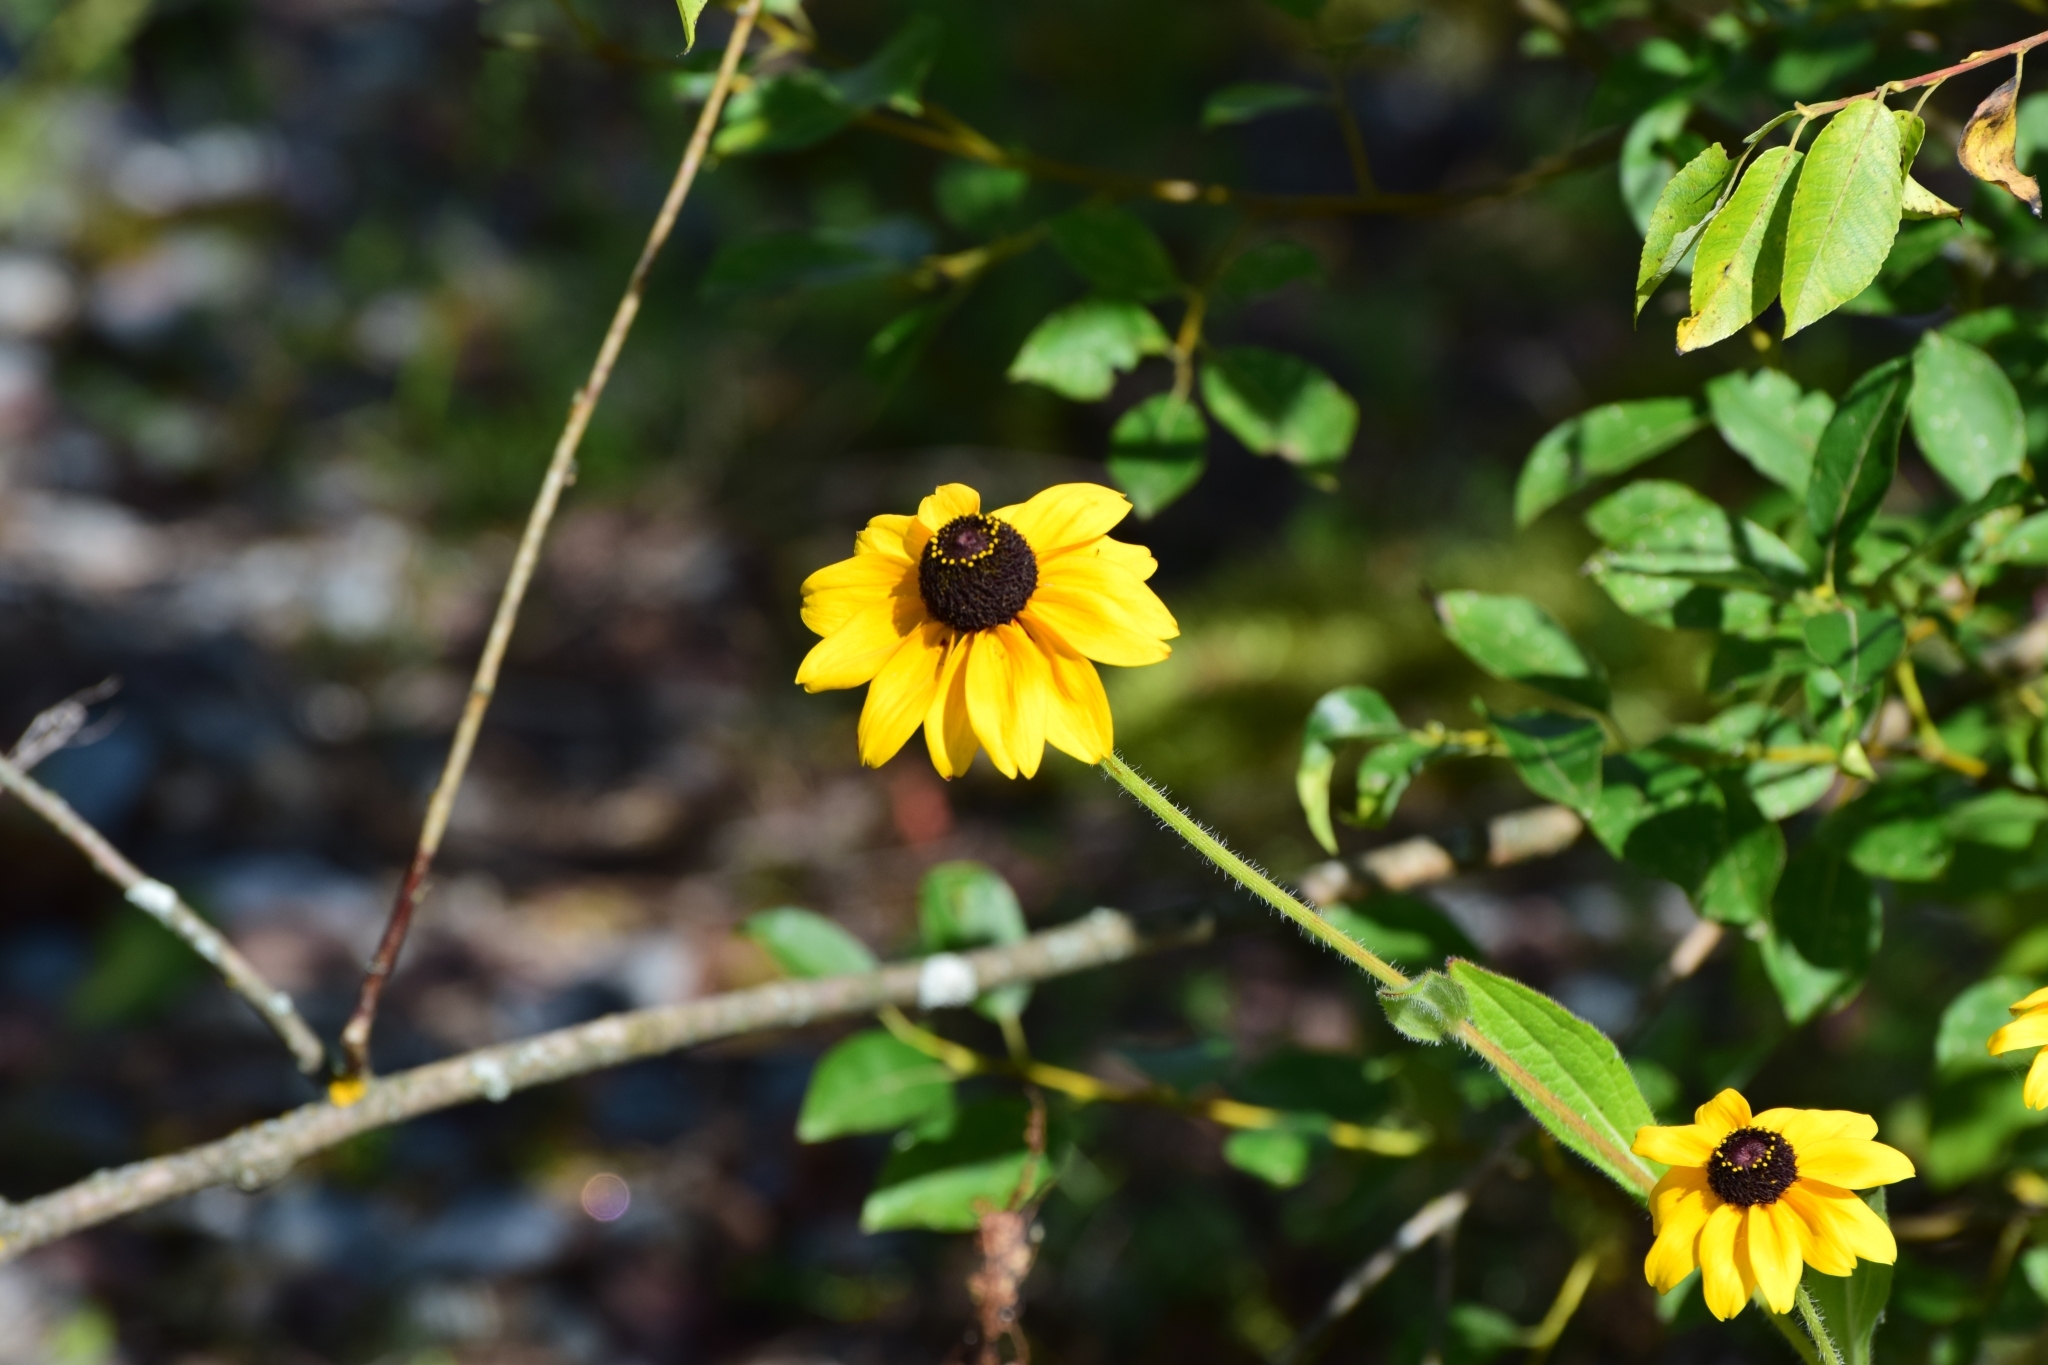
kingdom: Plantae
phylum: Tracheophyta
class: Magnoliopsida
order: Asterales
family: Asteraceae
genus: Rudbeckia
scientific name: Rudbeckia hirta
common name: Black-eyed-susan
